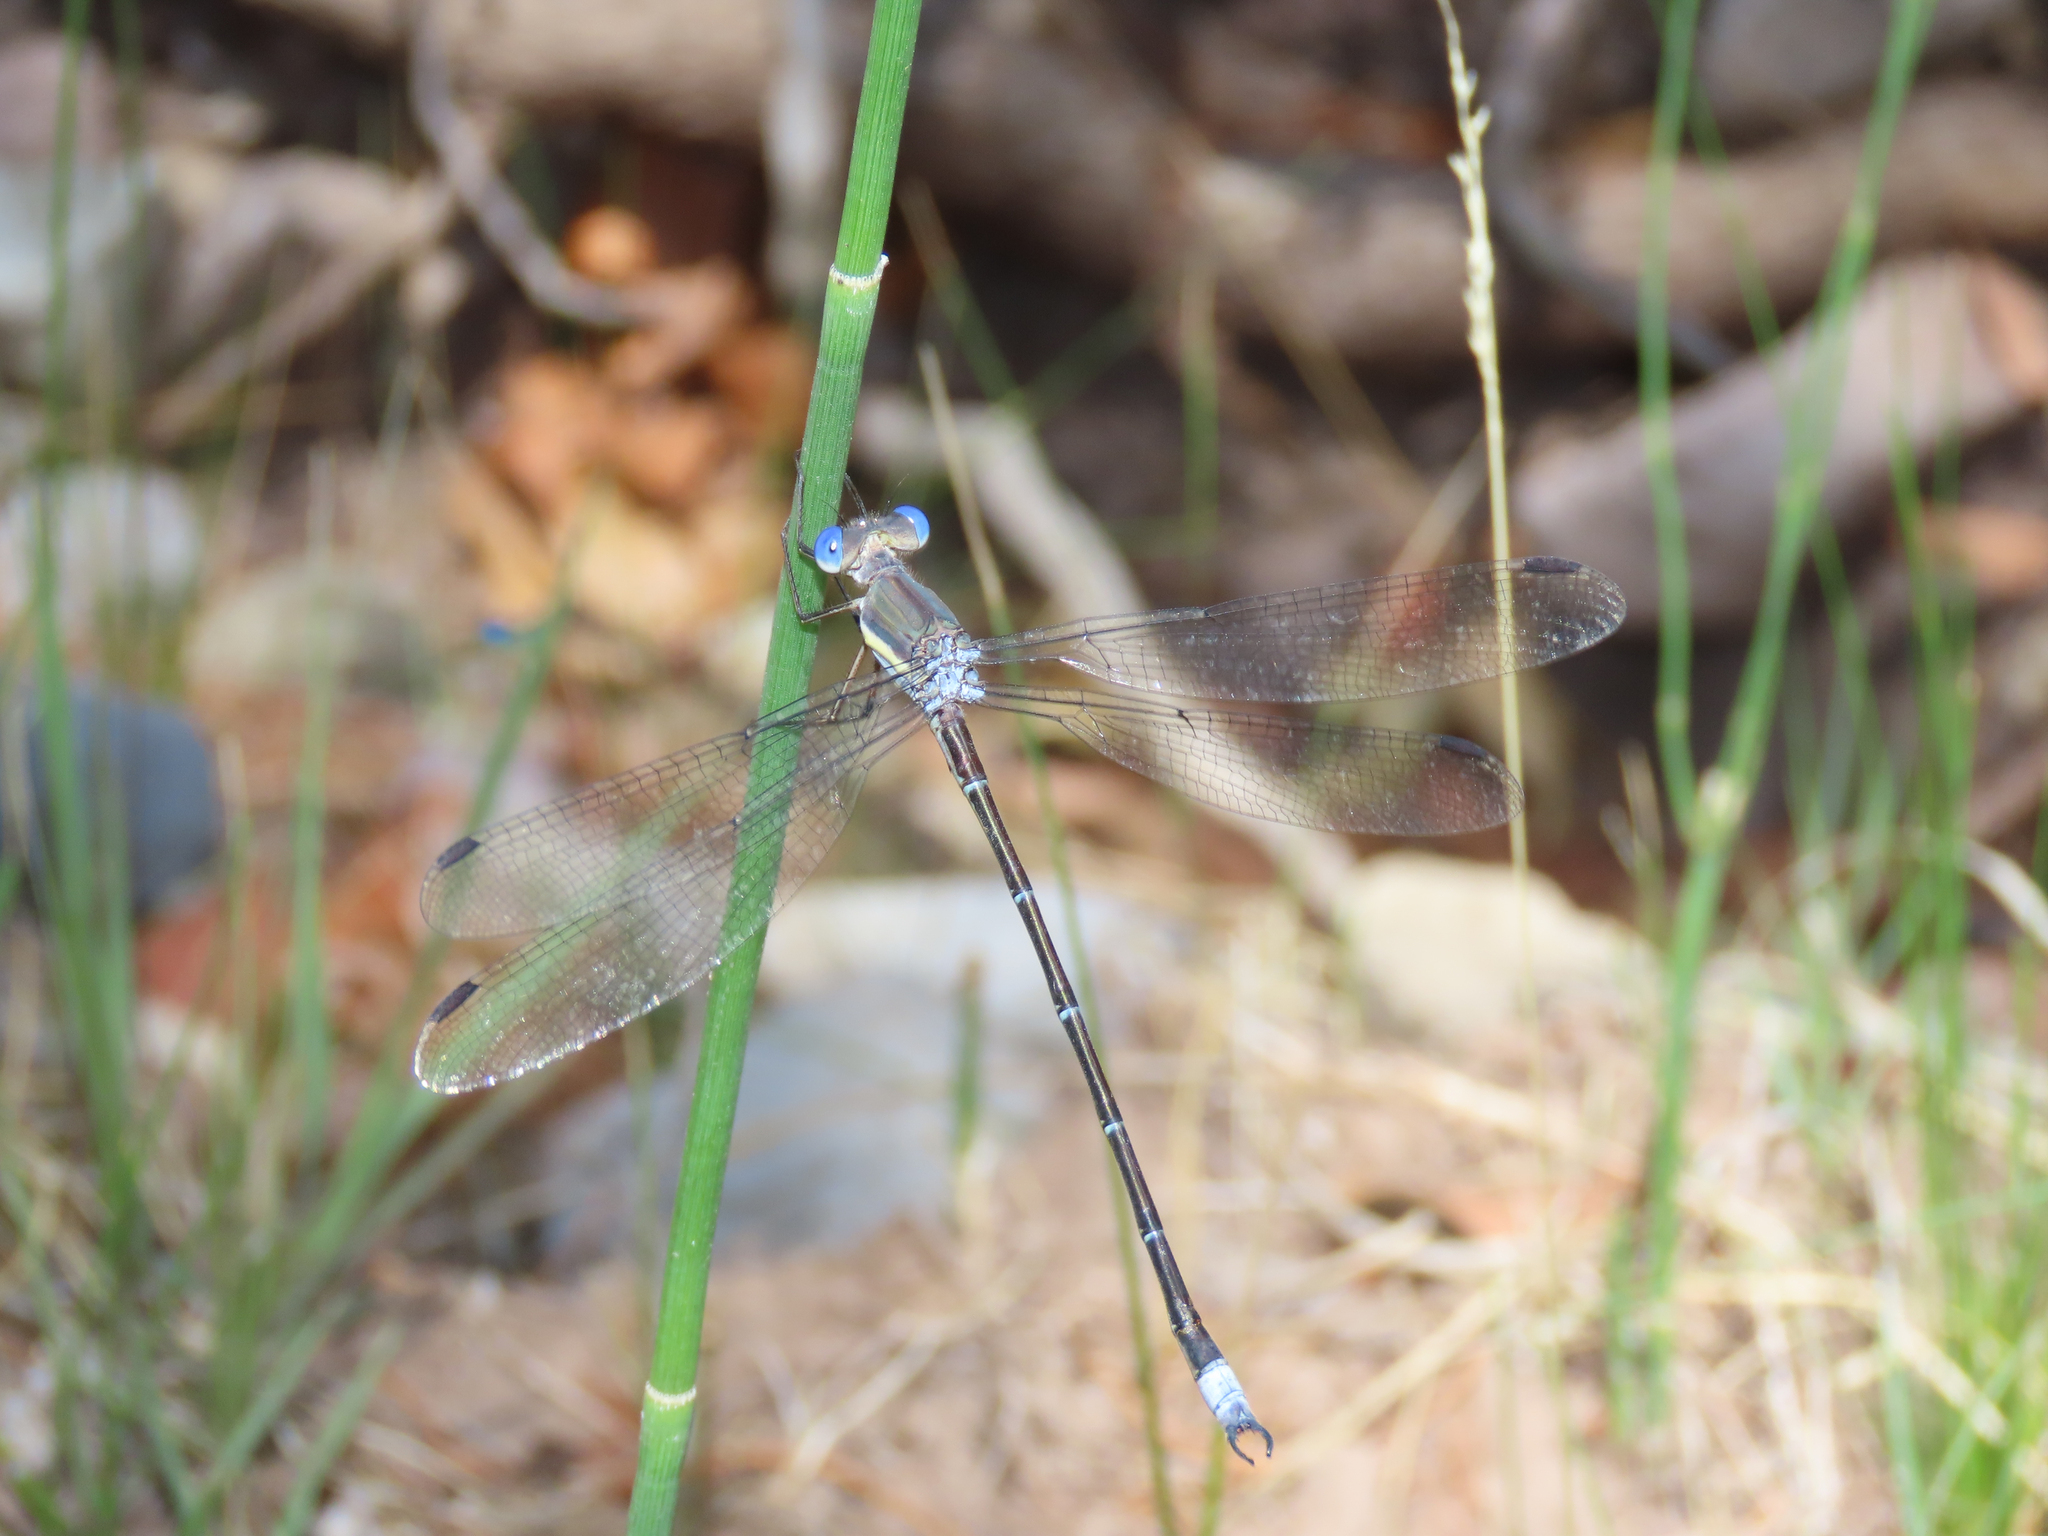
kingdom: Animalia
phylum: Arthropoda
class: Insecta
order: Odonata
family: Lestidae
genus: Archilestes
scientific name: Archilestes grandis
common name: Great spreadwing
